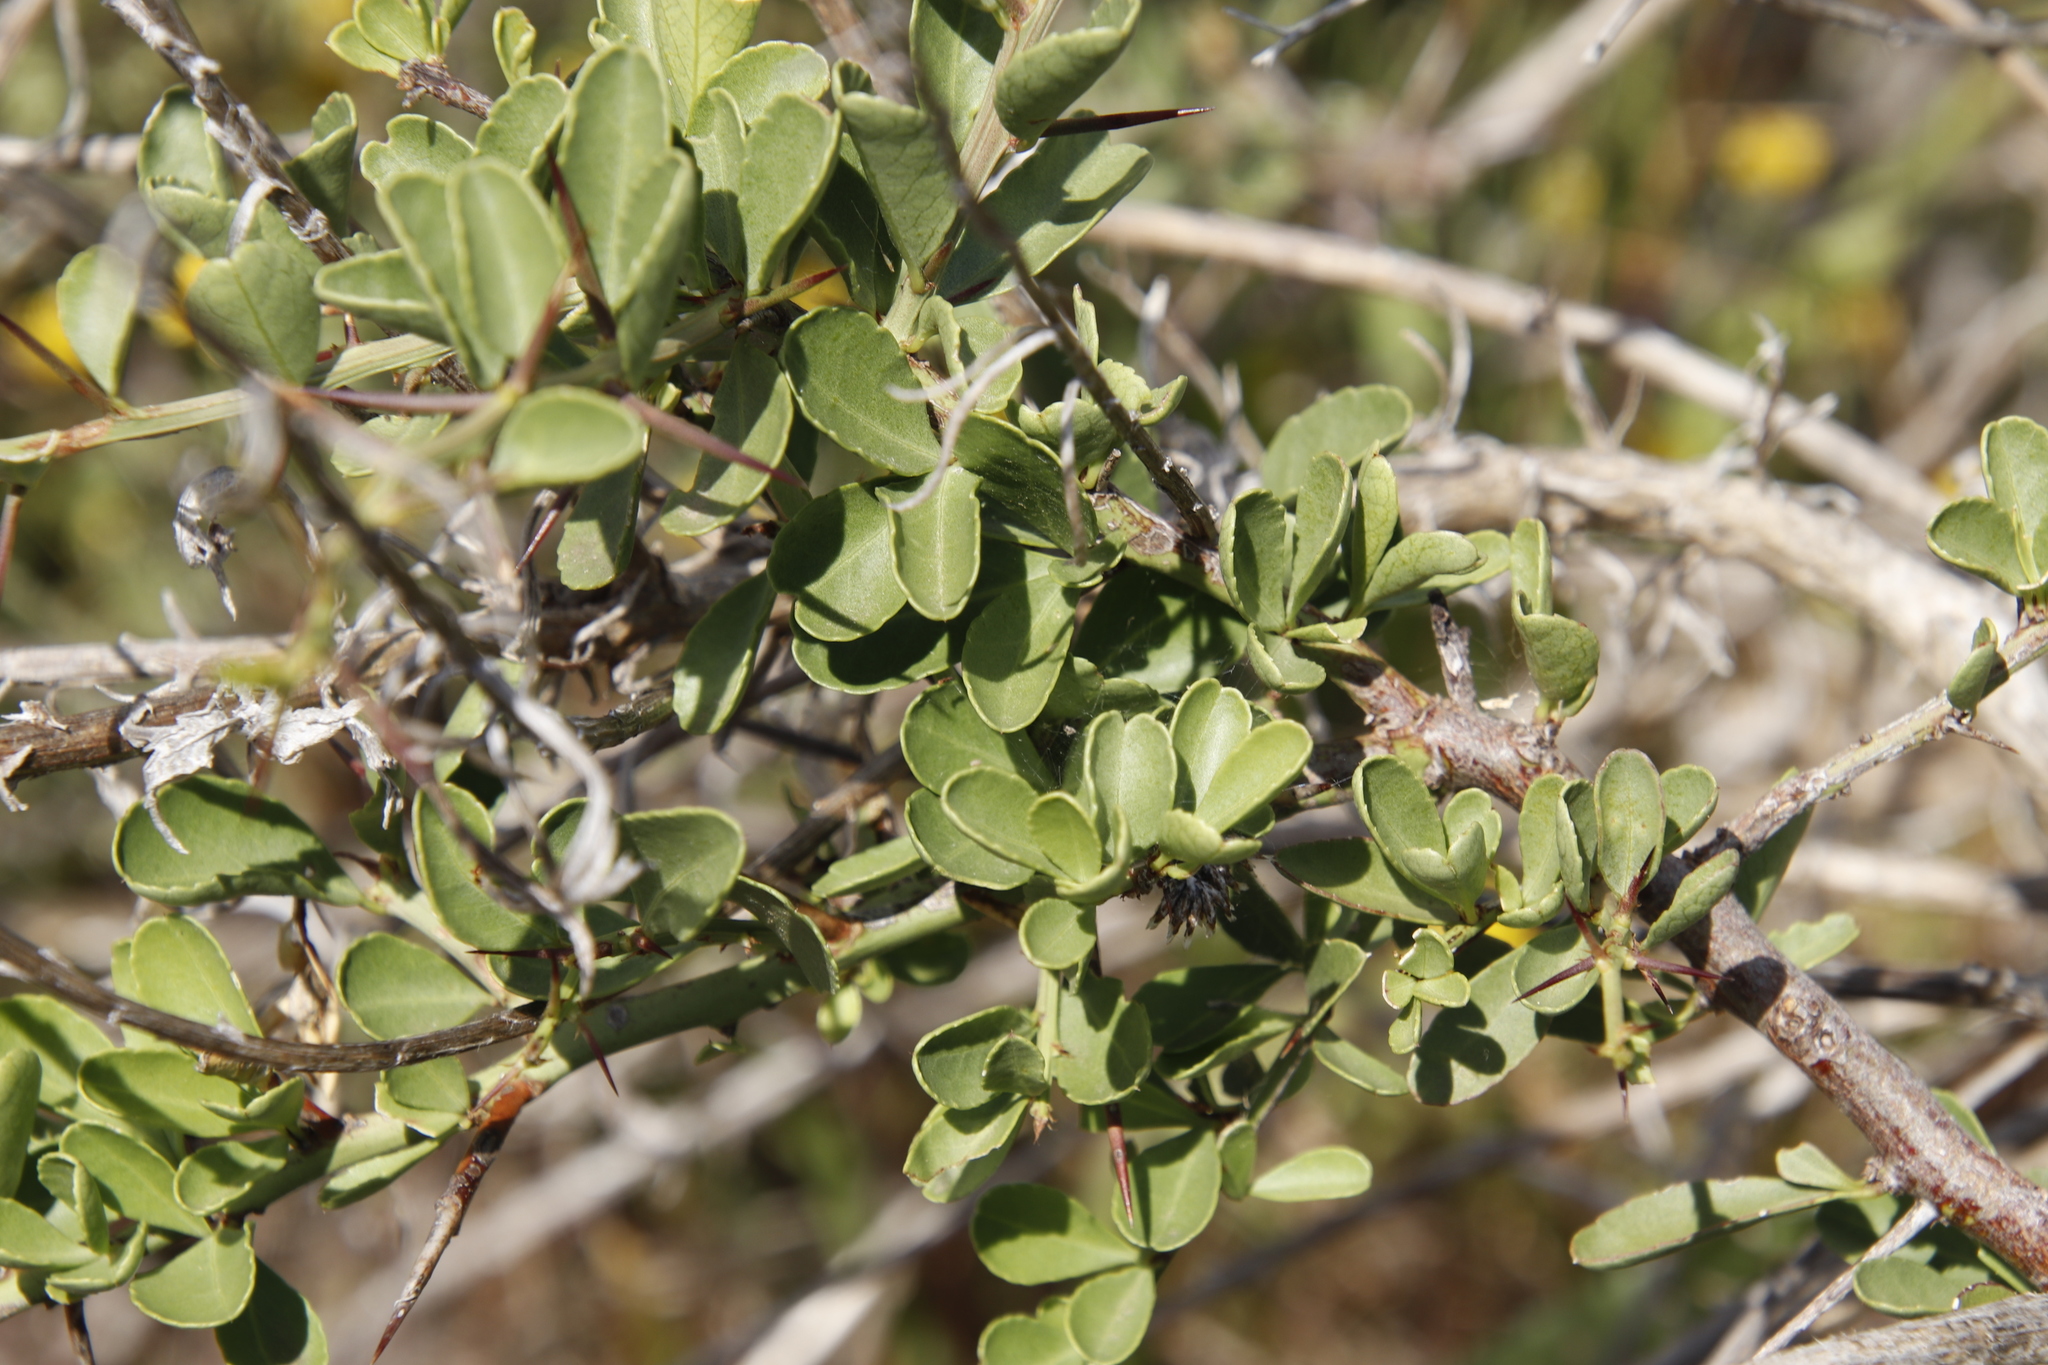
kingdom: Plantae
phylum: Tracheophyta
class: Magnoliopsida
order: Celastrales
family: Celastraceae
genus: Gymnosporia
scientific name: Gymnosporia buxifolia
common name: Common spike-thorn
